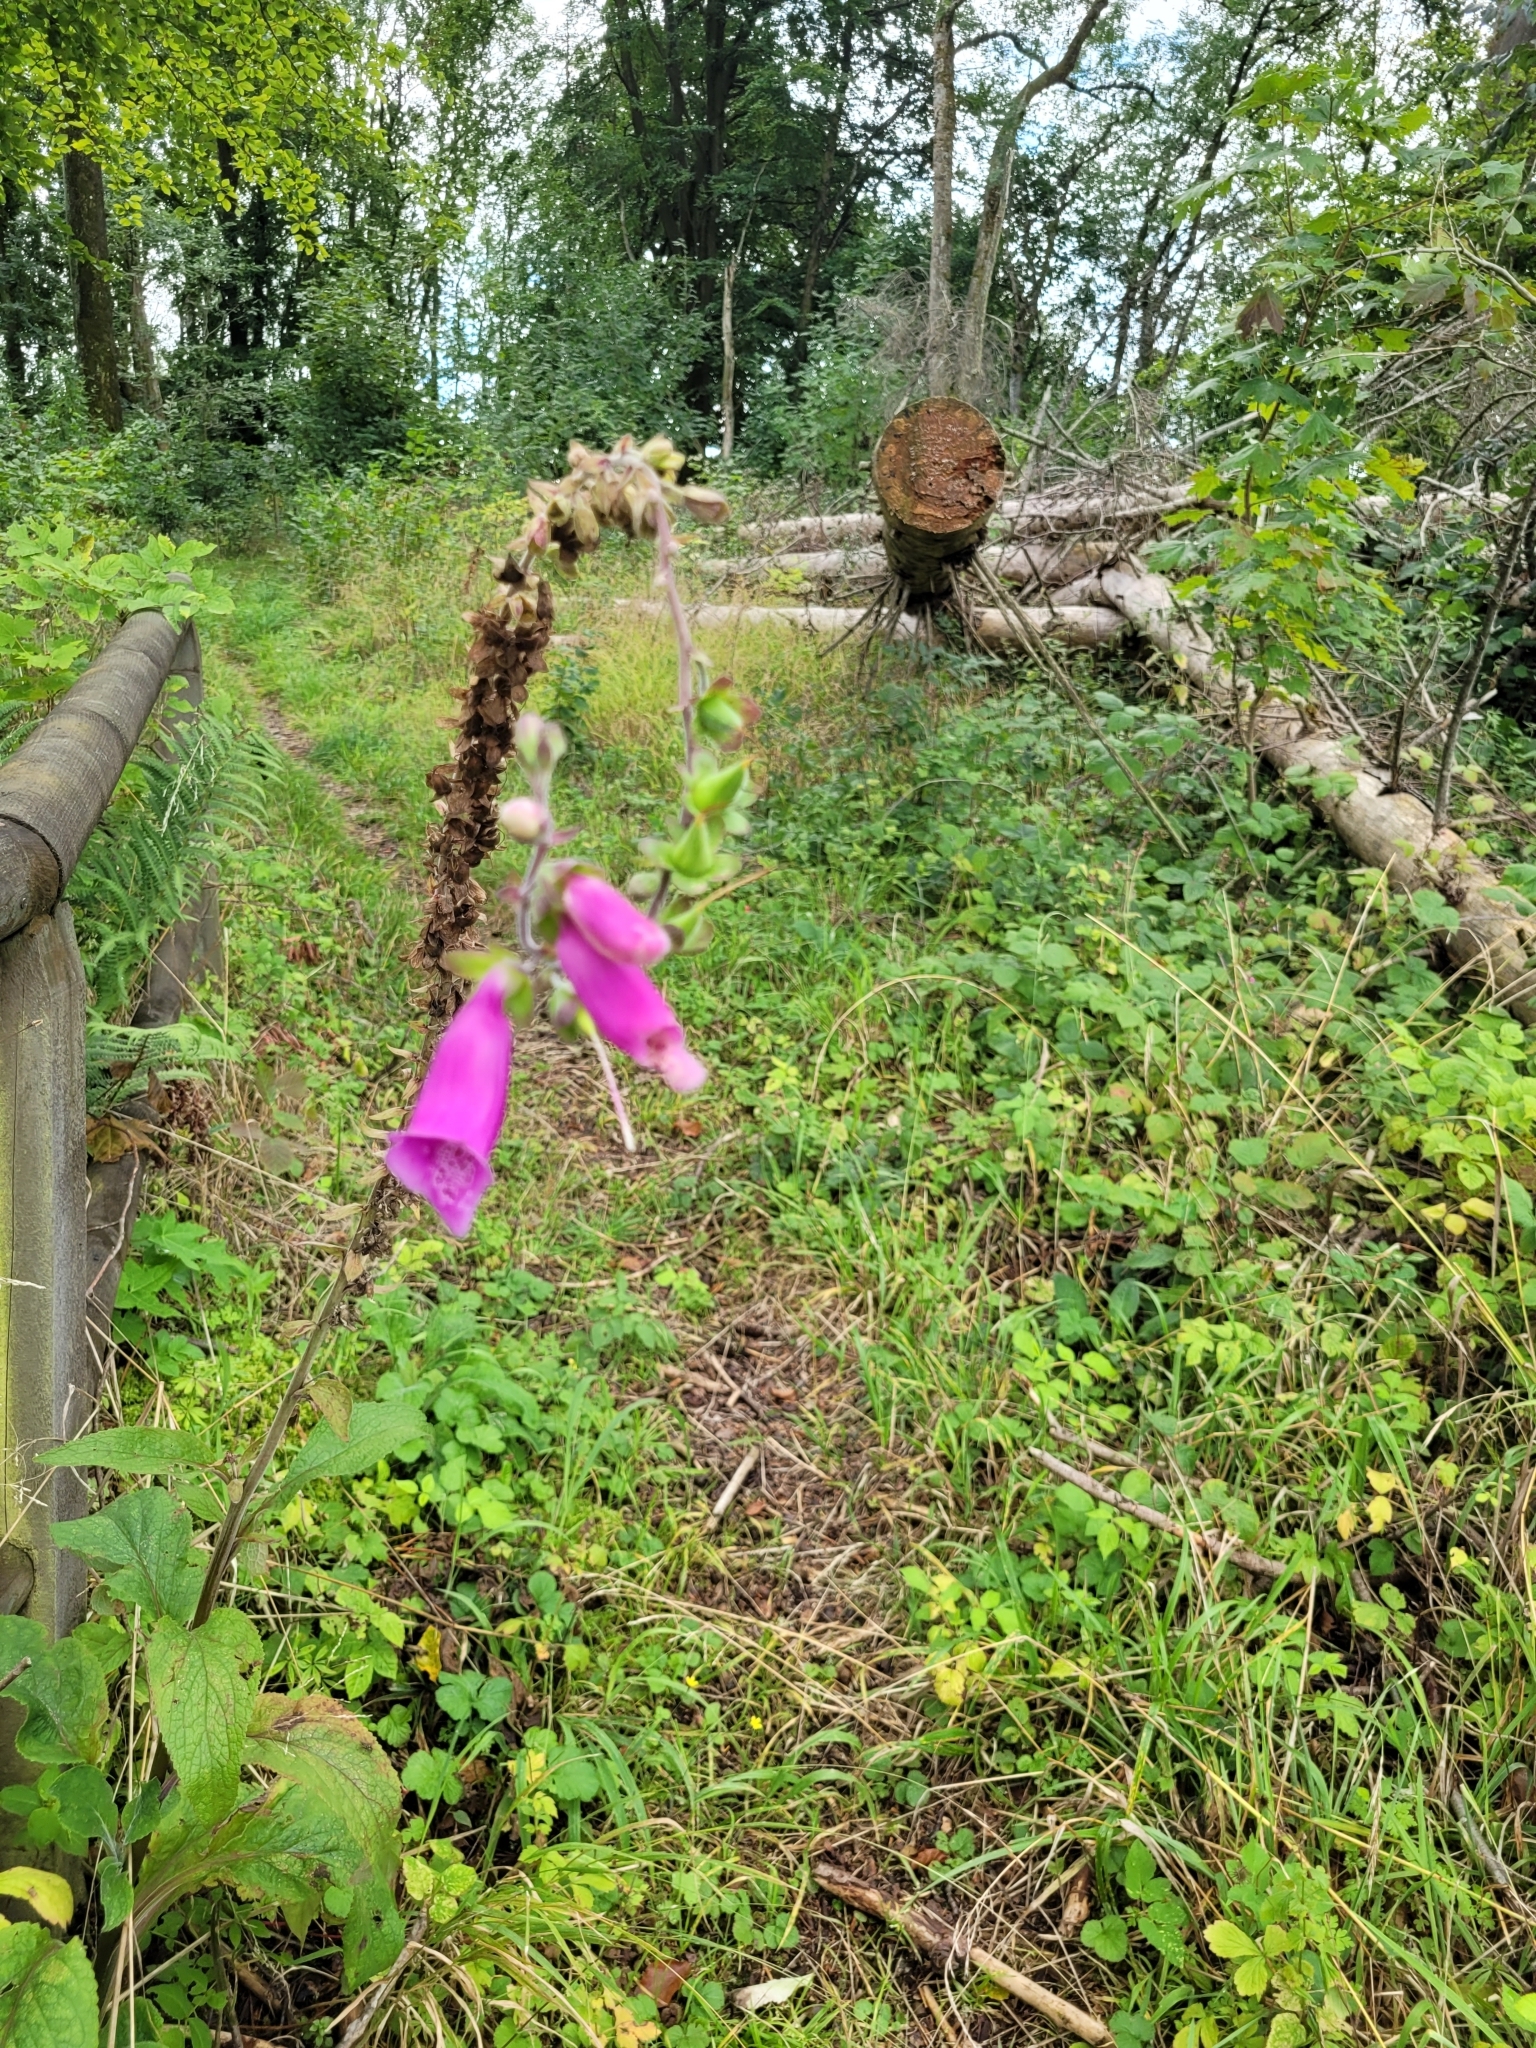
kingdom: Plantae
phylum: Tracheophyta
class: Magnoliopsida
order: Lamiales
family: Plantaginaceae
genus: Digitalis
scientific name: Digitalis purpurea
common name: Foxglove
